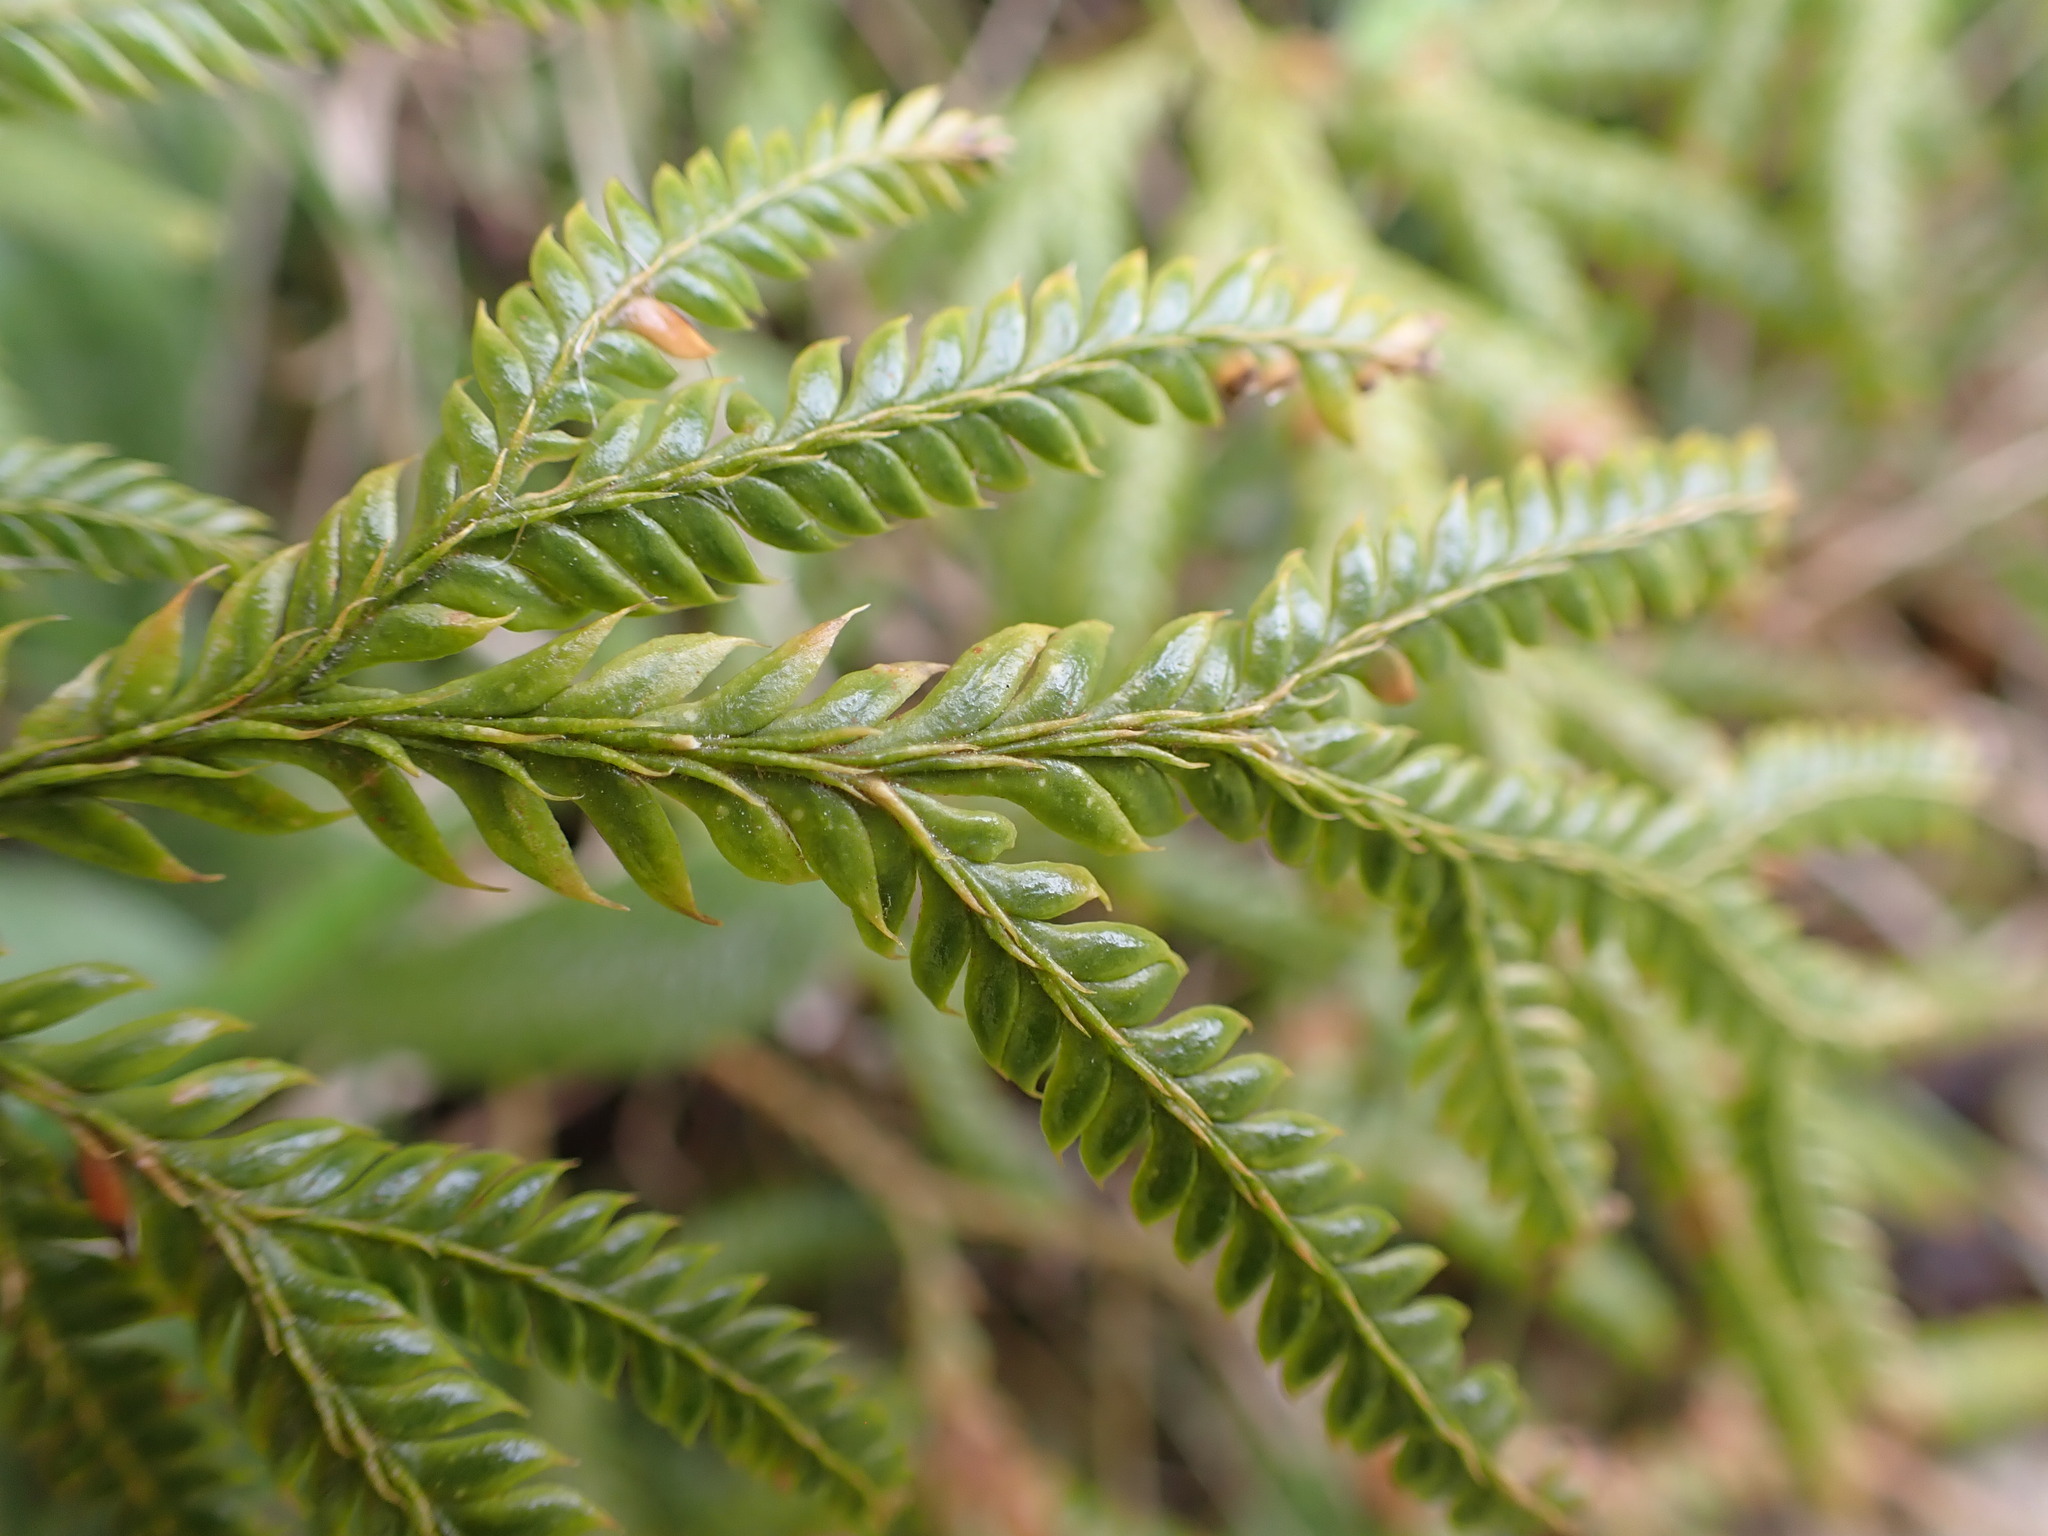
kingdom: Plantae
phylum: Tracheophyta
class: Lycopodiopsida
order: Lycopodiales
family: Lycopodiaceae
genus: Lycopodium
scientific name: Lycopodium volubile
